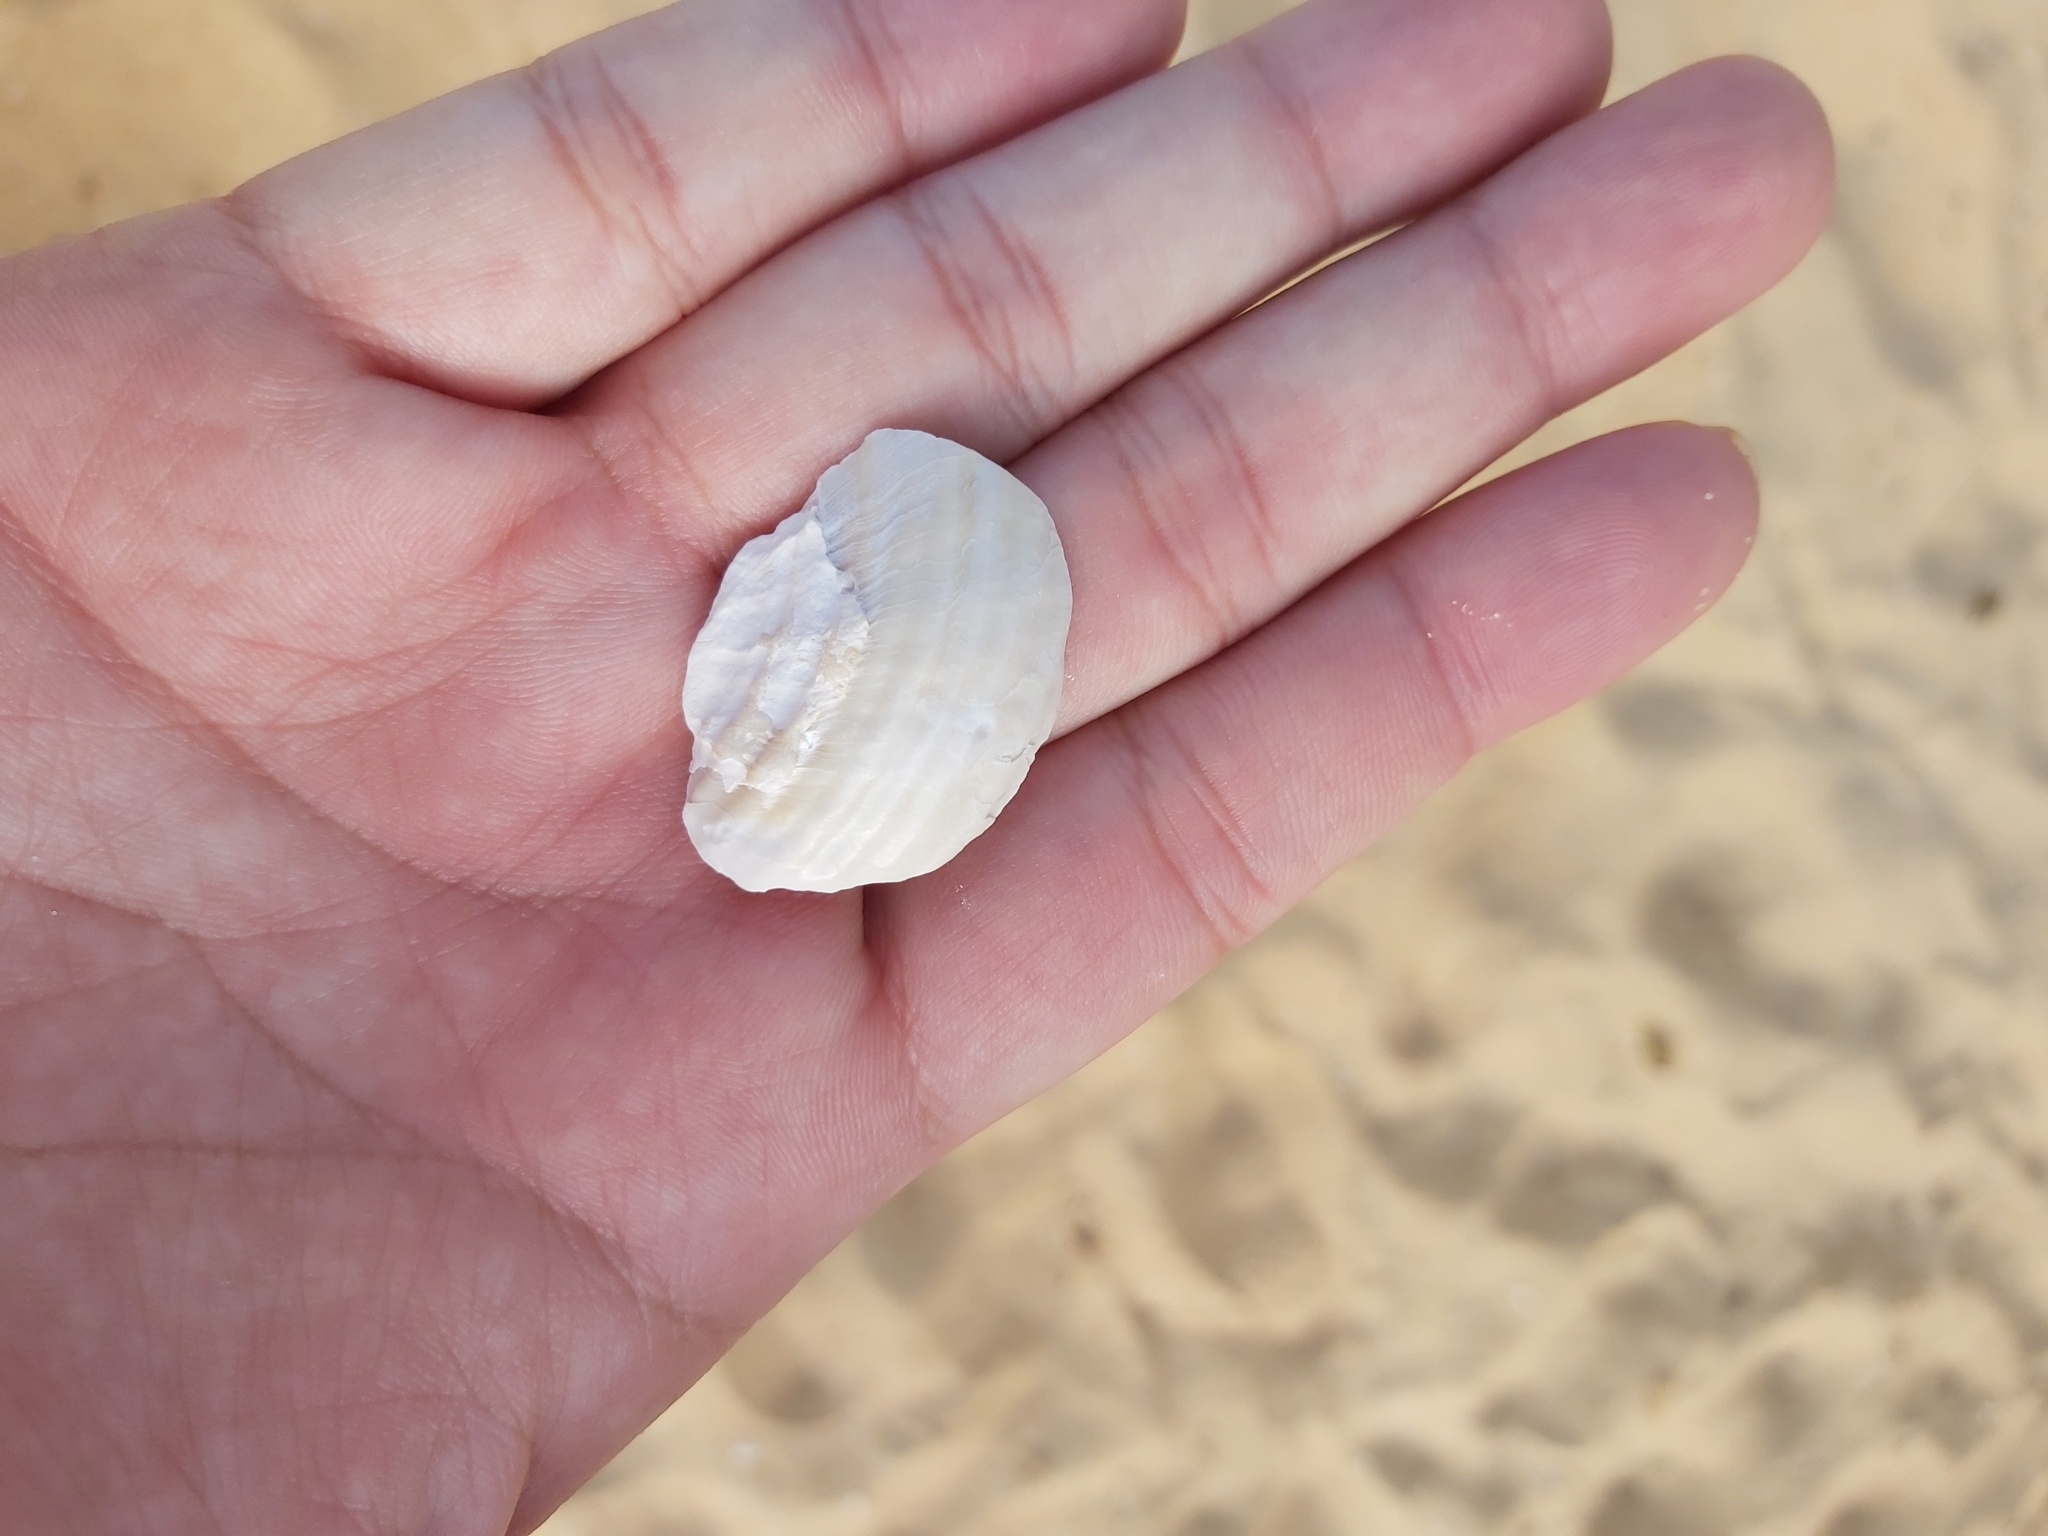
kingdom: Animalia
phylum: Mollusca
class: Gastropoda
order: Trochida
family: Turbinidae
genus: Lunella
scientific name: Lunella torquata
